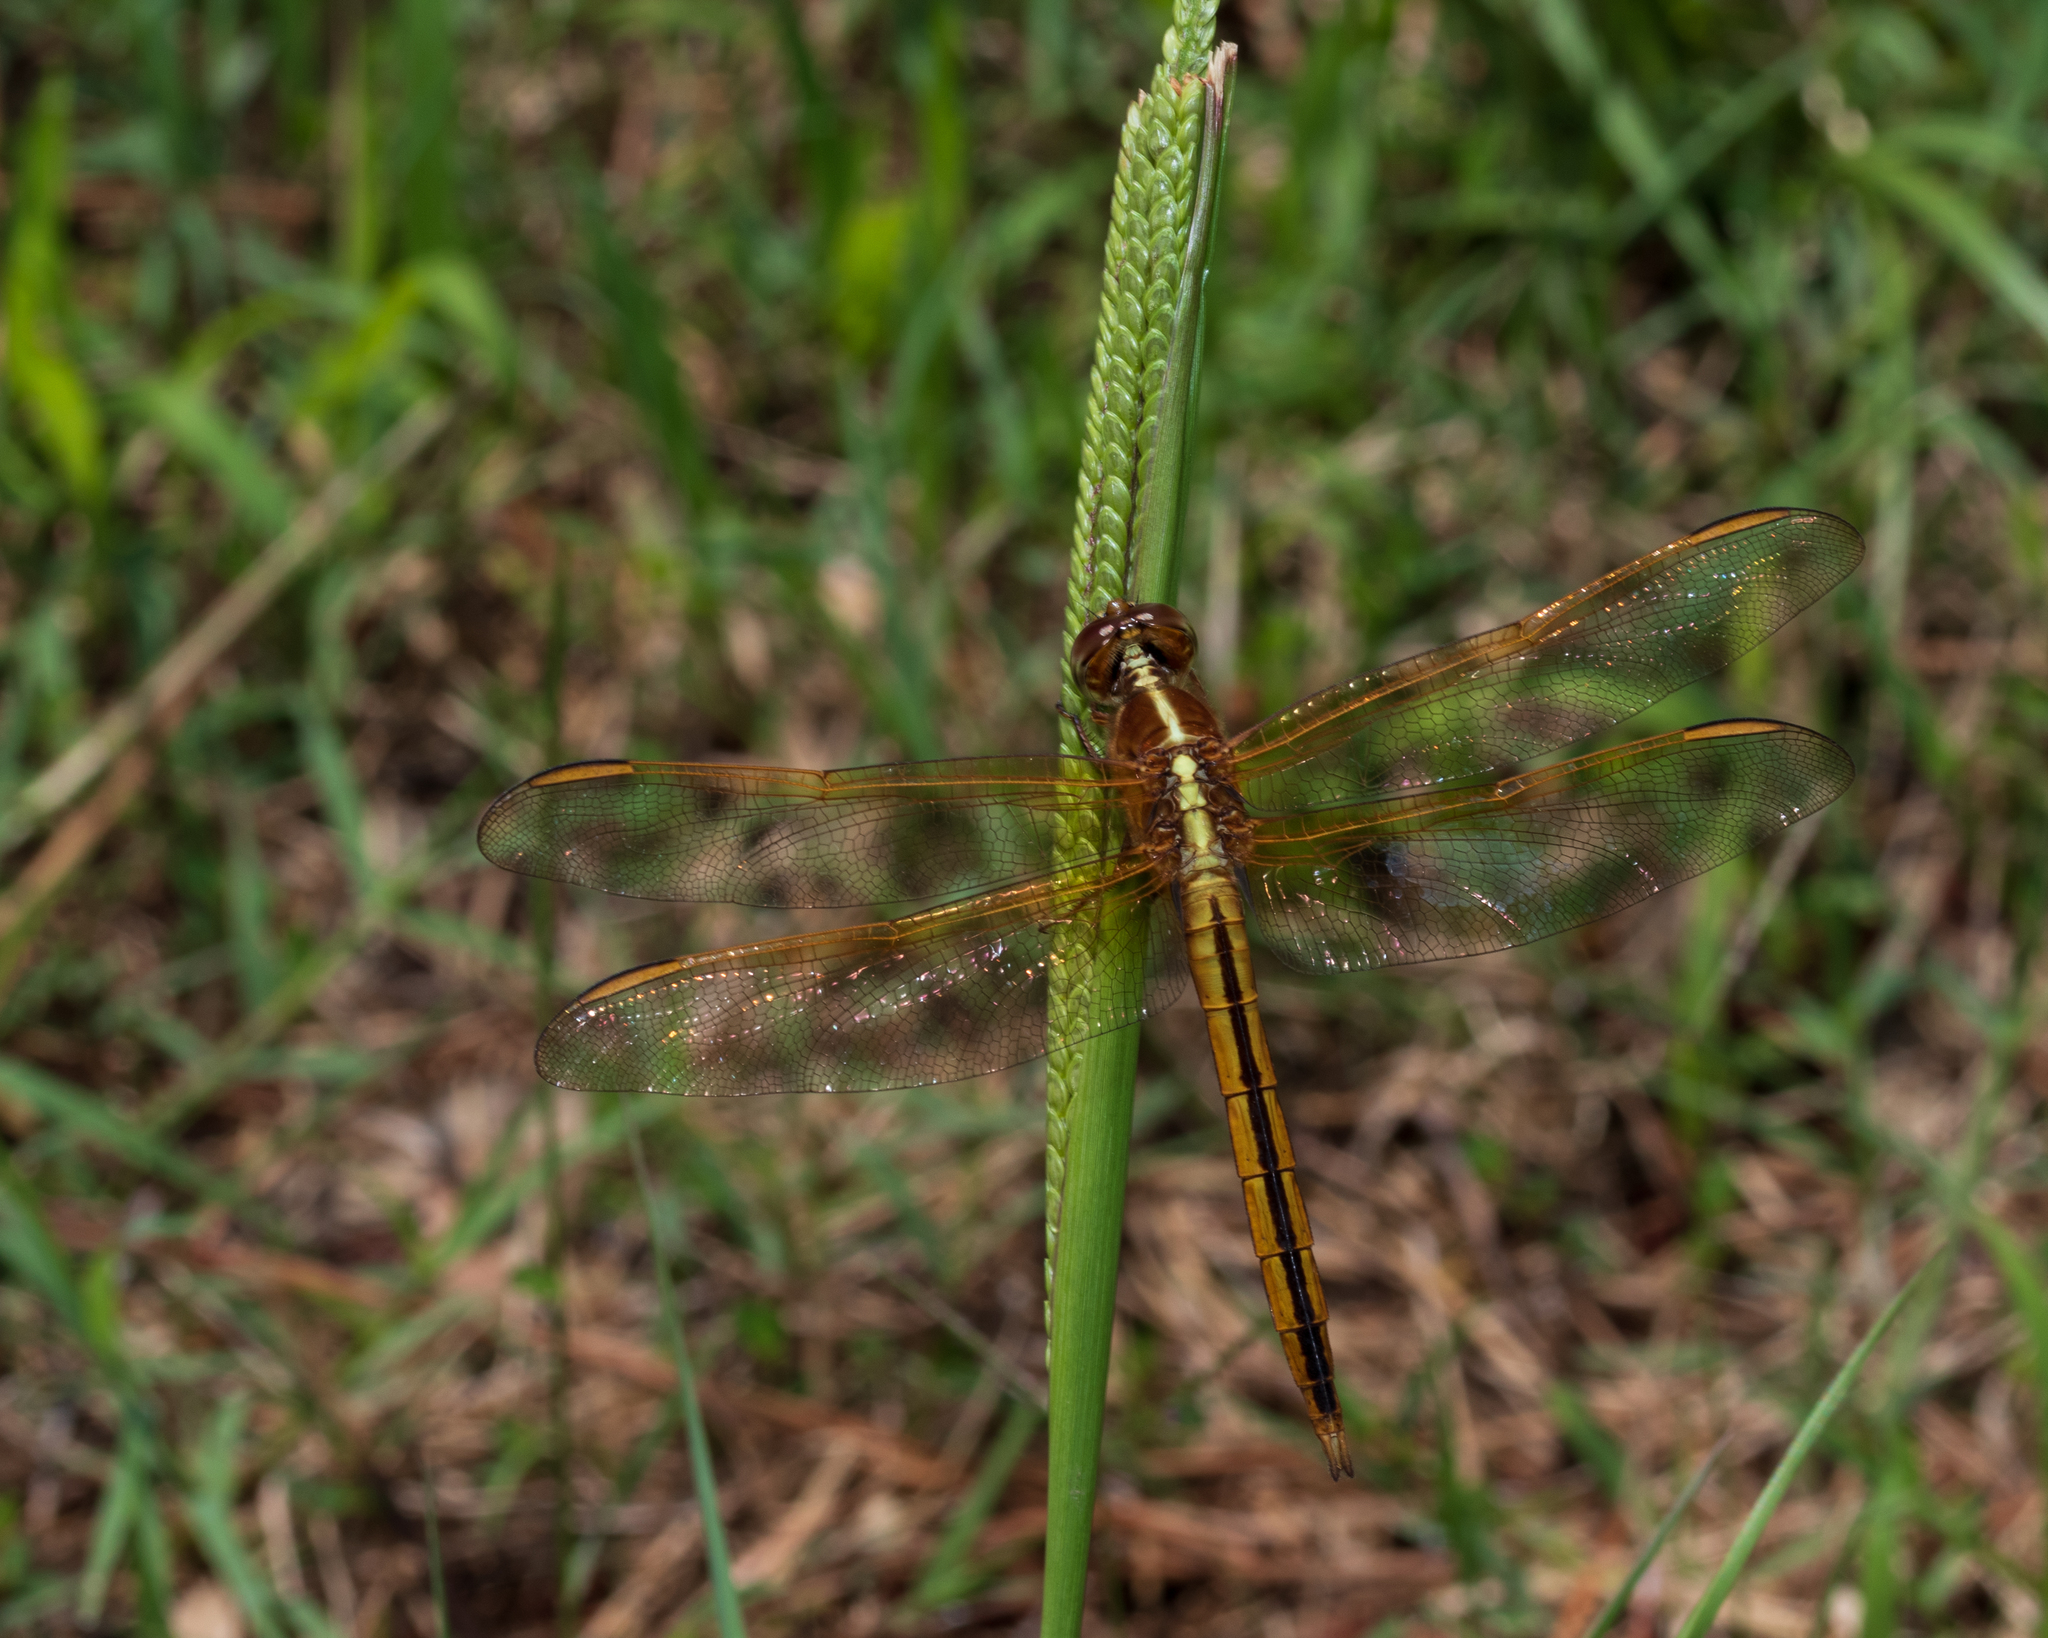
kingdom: Animalia
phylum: Arthropoda
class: Insecta
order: Odonata
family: Libellulidae
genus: Libellula
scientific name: Libellula needhami
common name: Needham's skimmer
